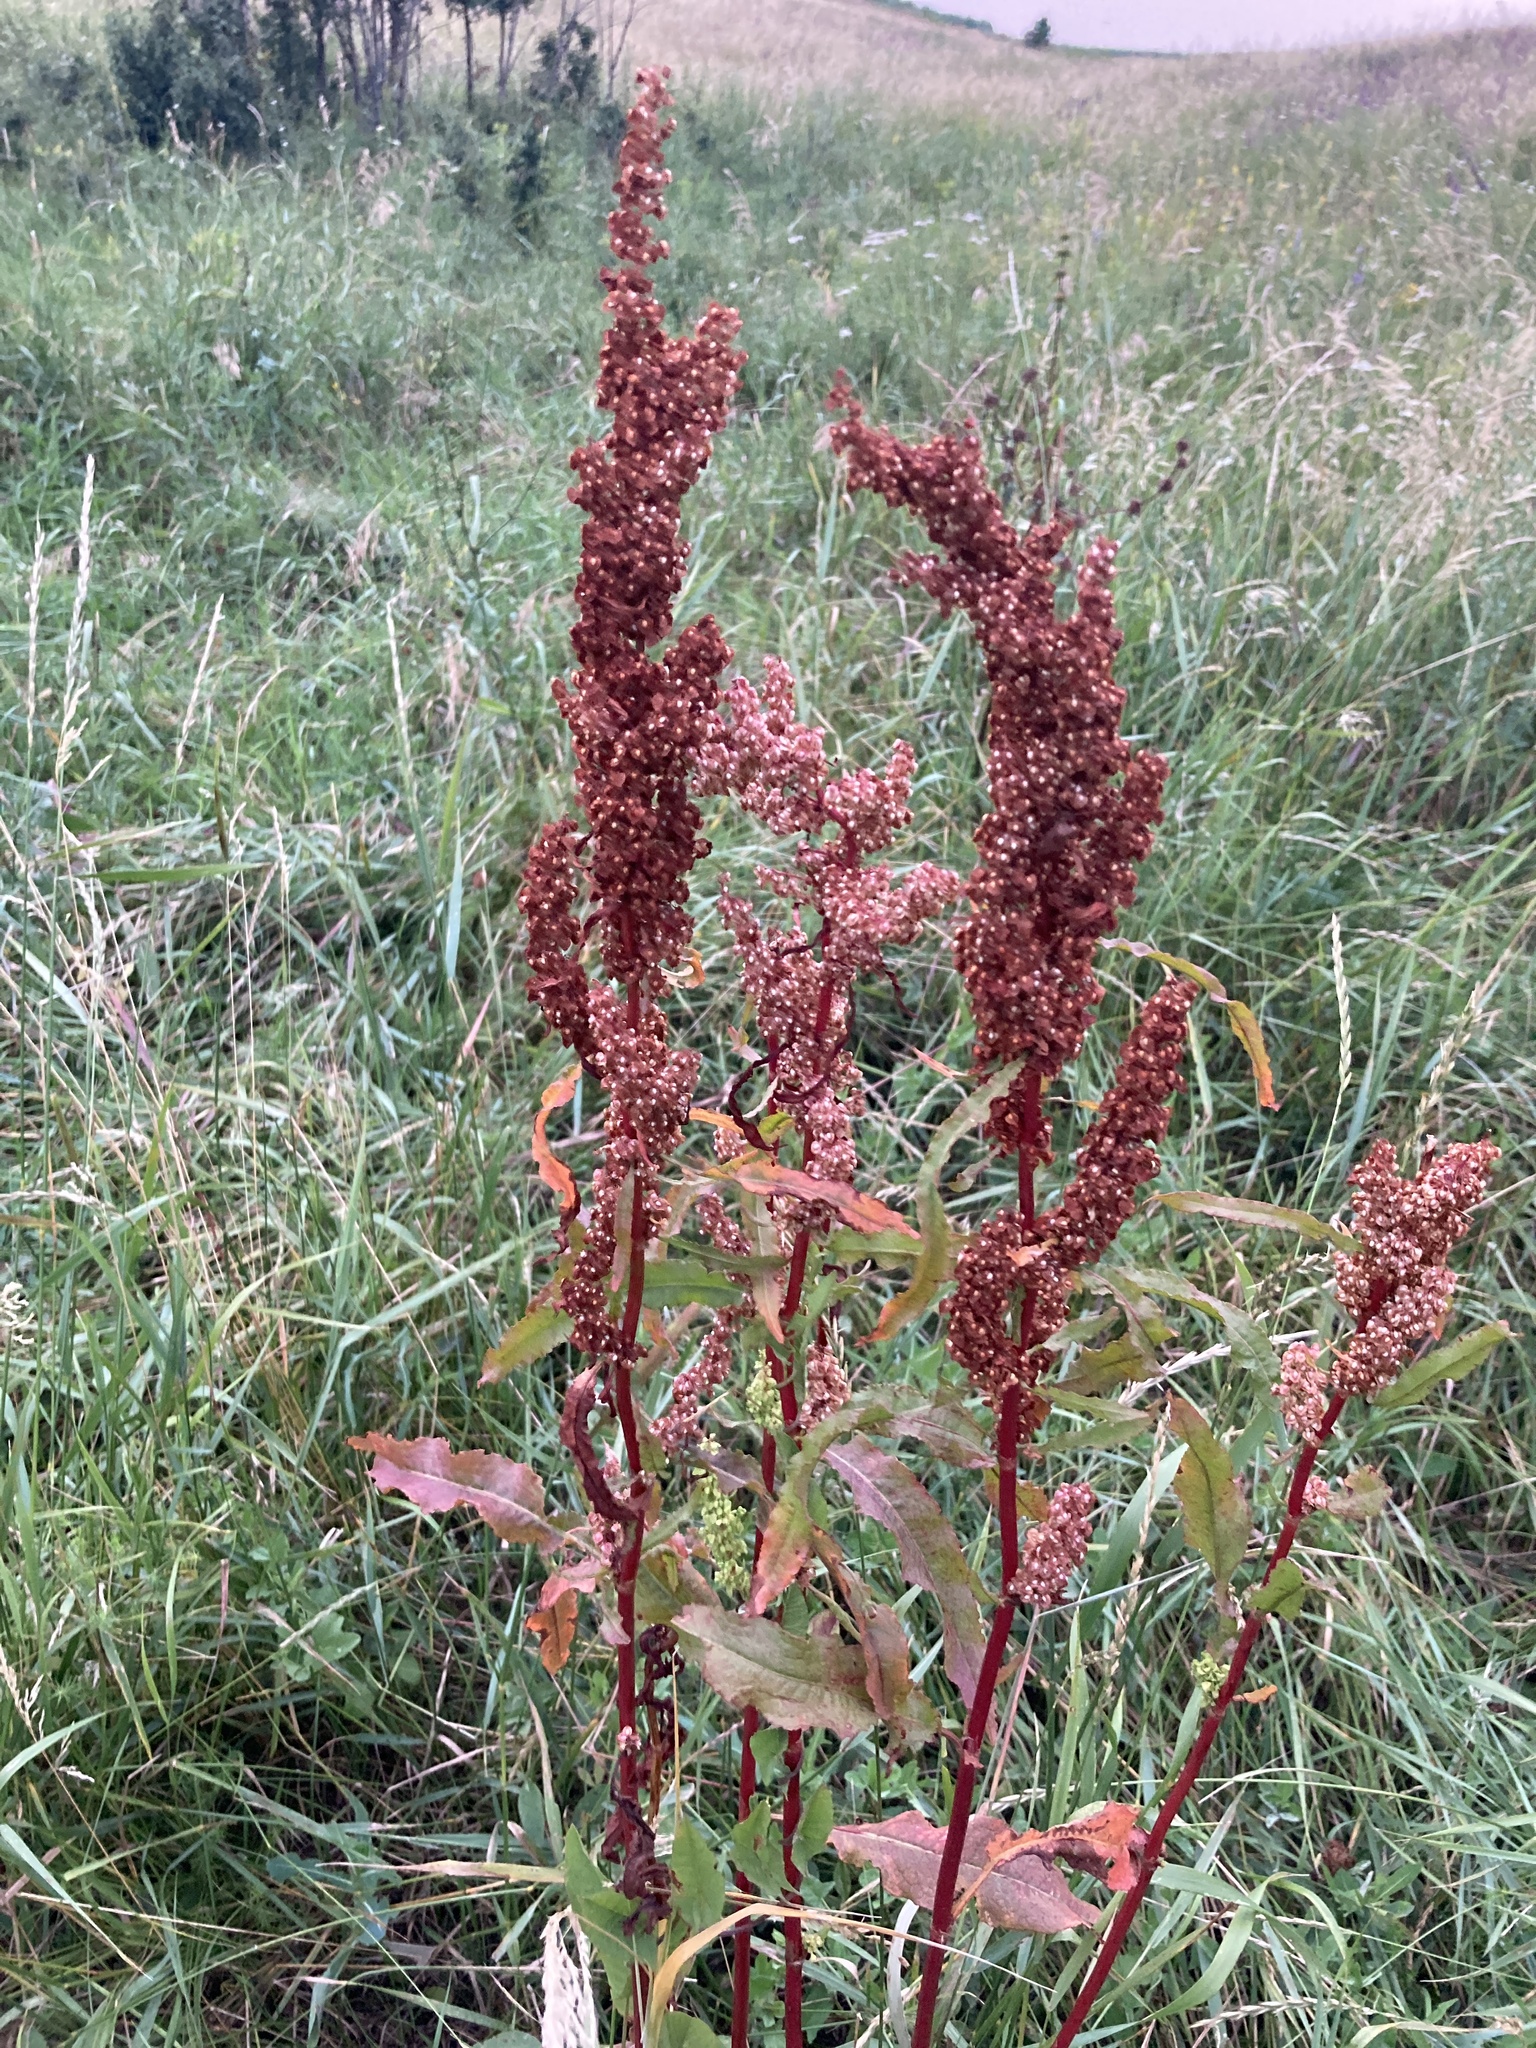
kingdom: Plantae
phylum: Tracheophyta
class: Magnoliopsida
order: Caryophyllales
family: Polygonaceae
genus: Rumex
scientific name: Rumex crispus
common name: Curled dock
